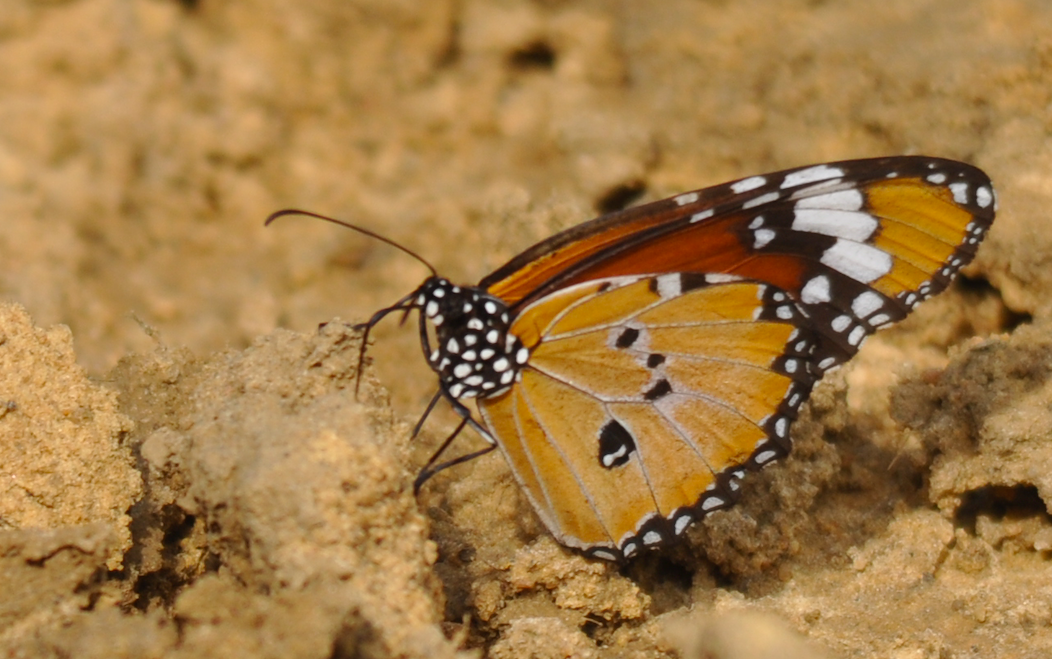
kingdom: Animalia
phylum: Arthropoda
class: Insecta
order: Lepidoptera
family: Nymphalidae
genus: Danaus
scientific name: Danaus chrysippus
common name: Plain tiger
